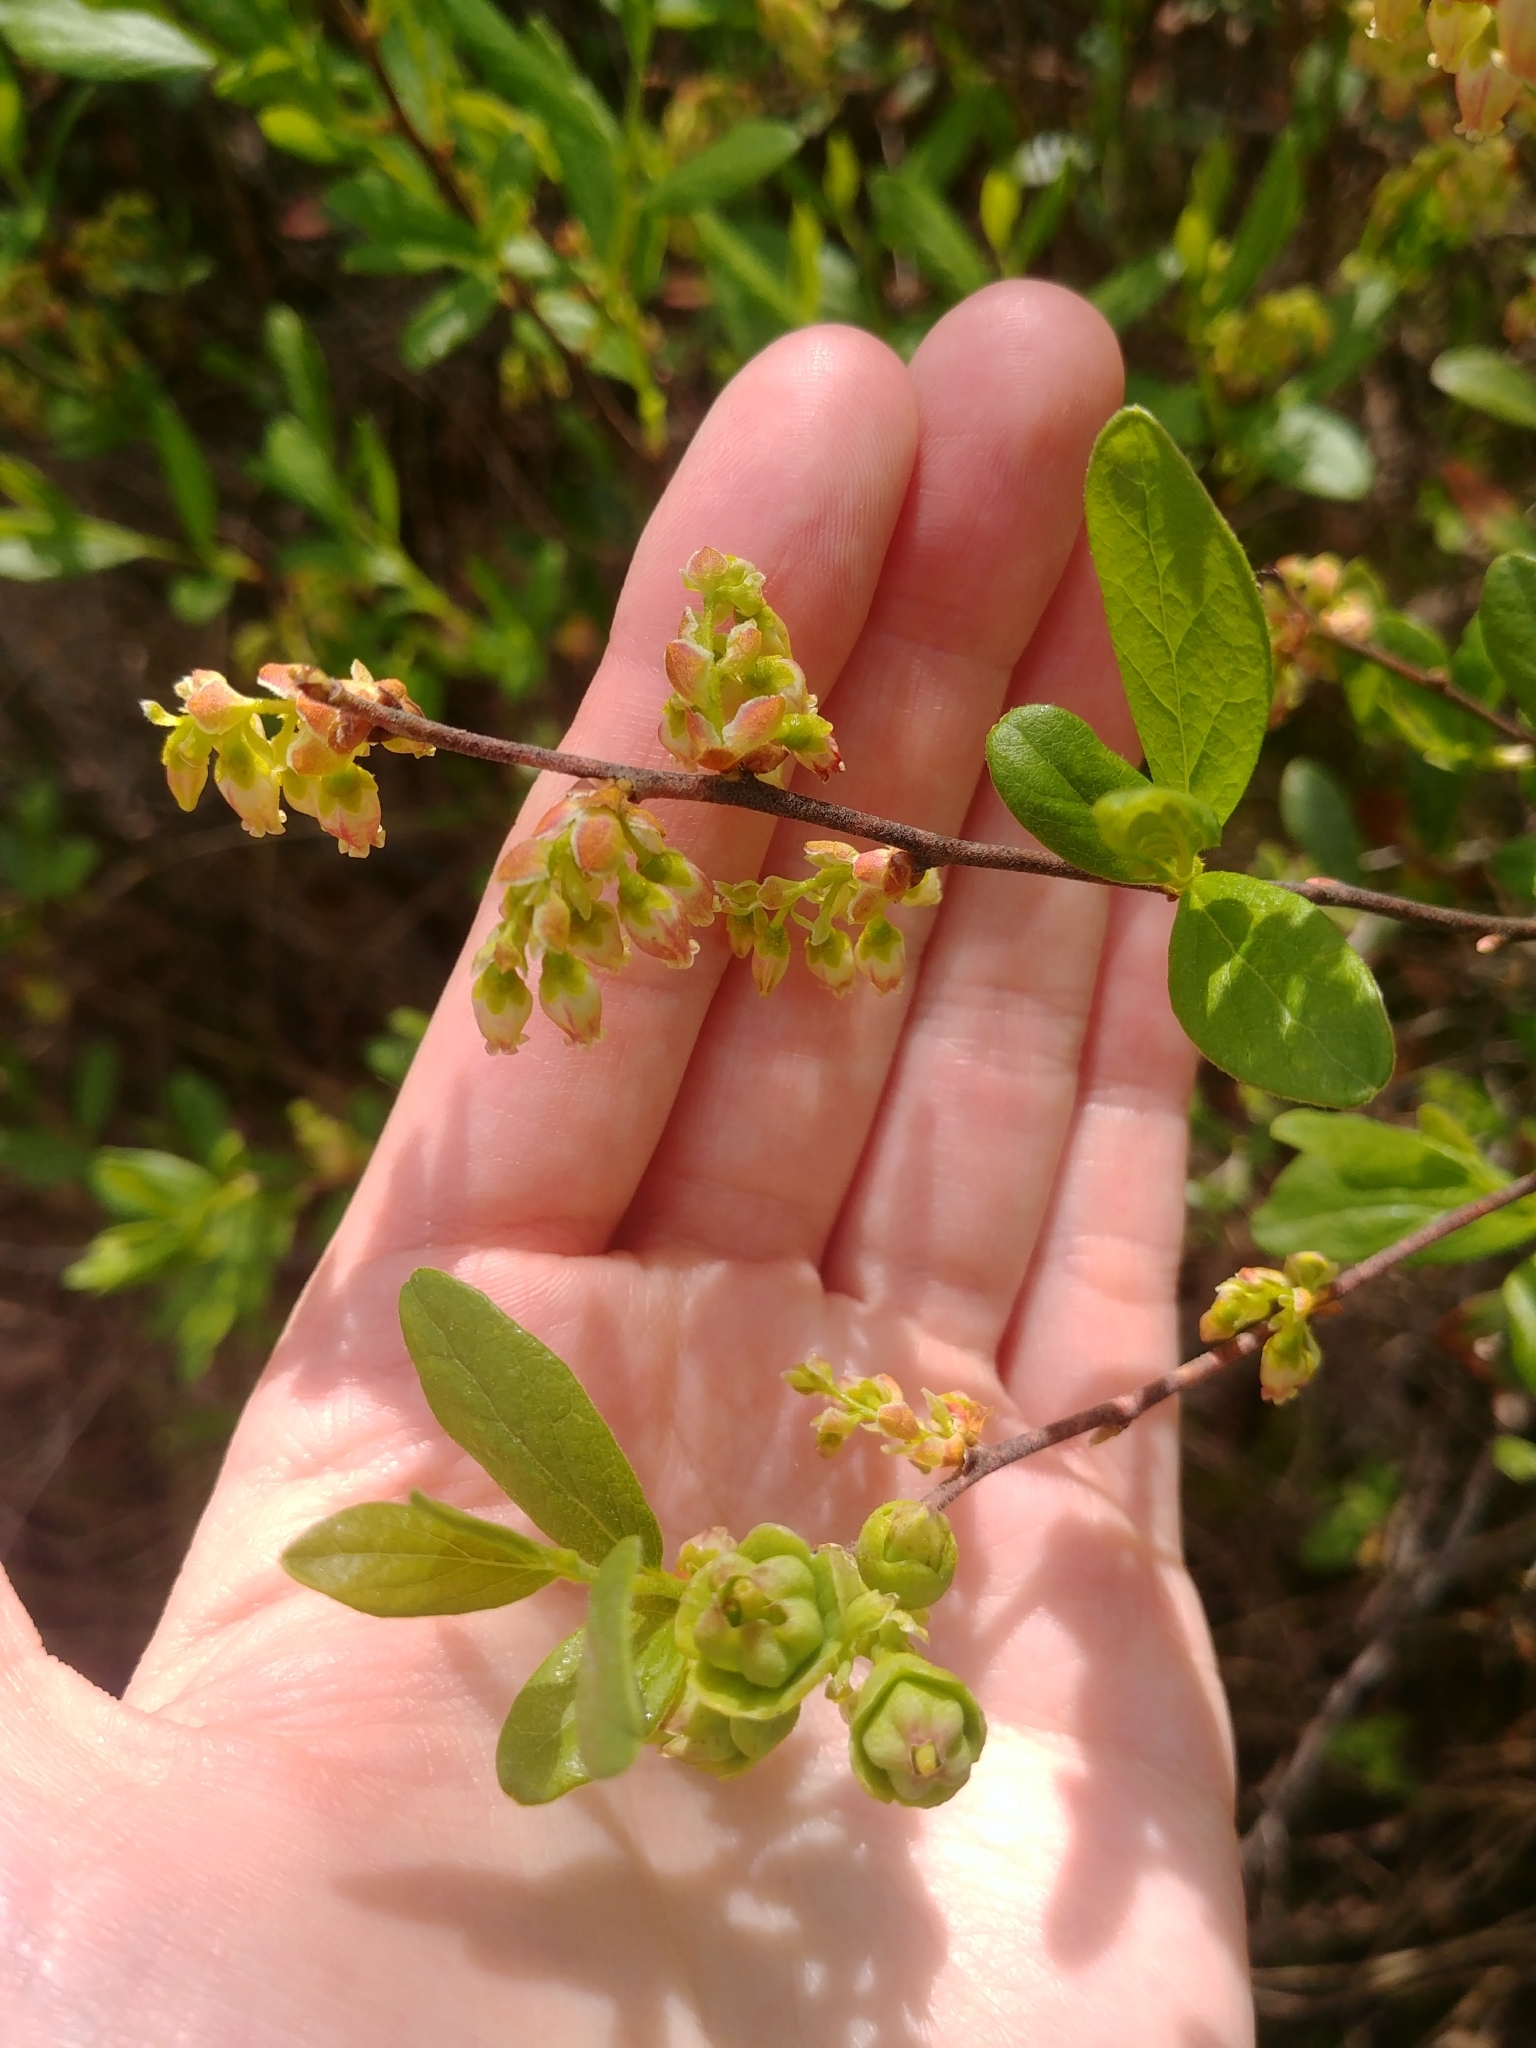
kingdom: Plantae
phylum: Tracheophyta
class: Magnoliopsida
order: Ericales
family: Ericaceae
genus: Gaylussacia
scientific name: Gaylussacia baccata
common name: Black huckleberry
